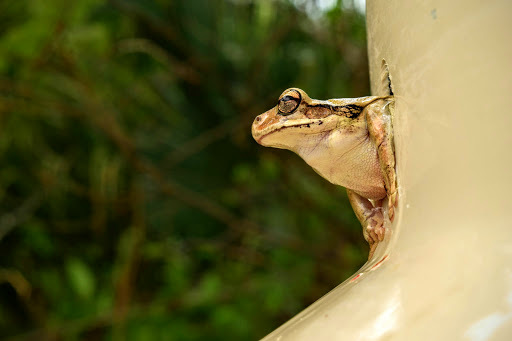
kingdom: Animalia
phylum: Chordata
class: Amphibia
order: Anura
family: Hylidae
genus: Smilisca
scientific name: Smilisca baudinii
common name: Mexican smilisca
